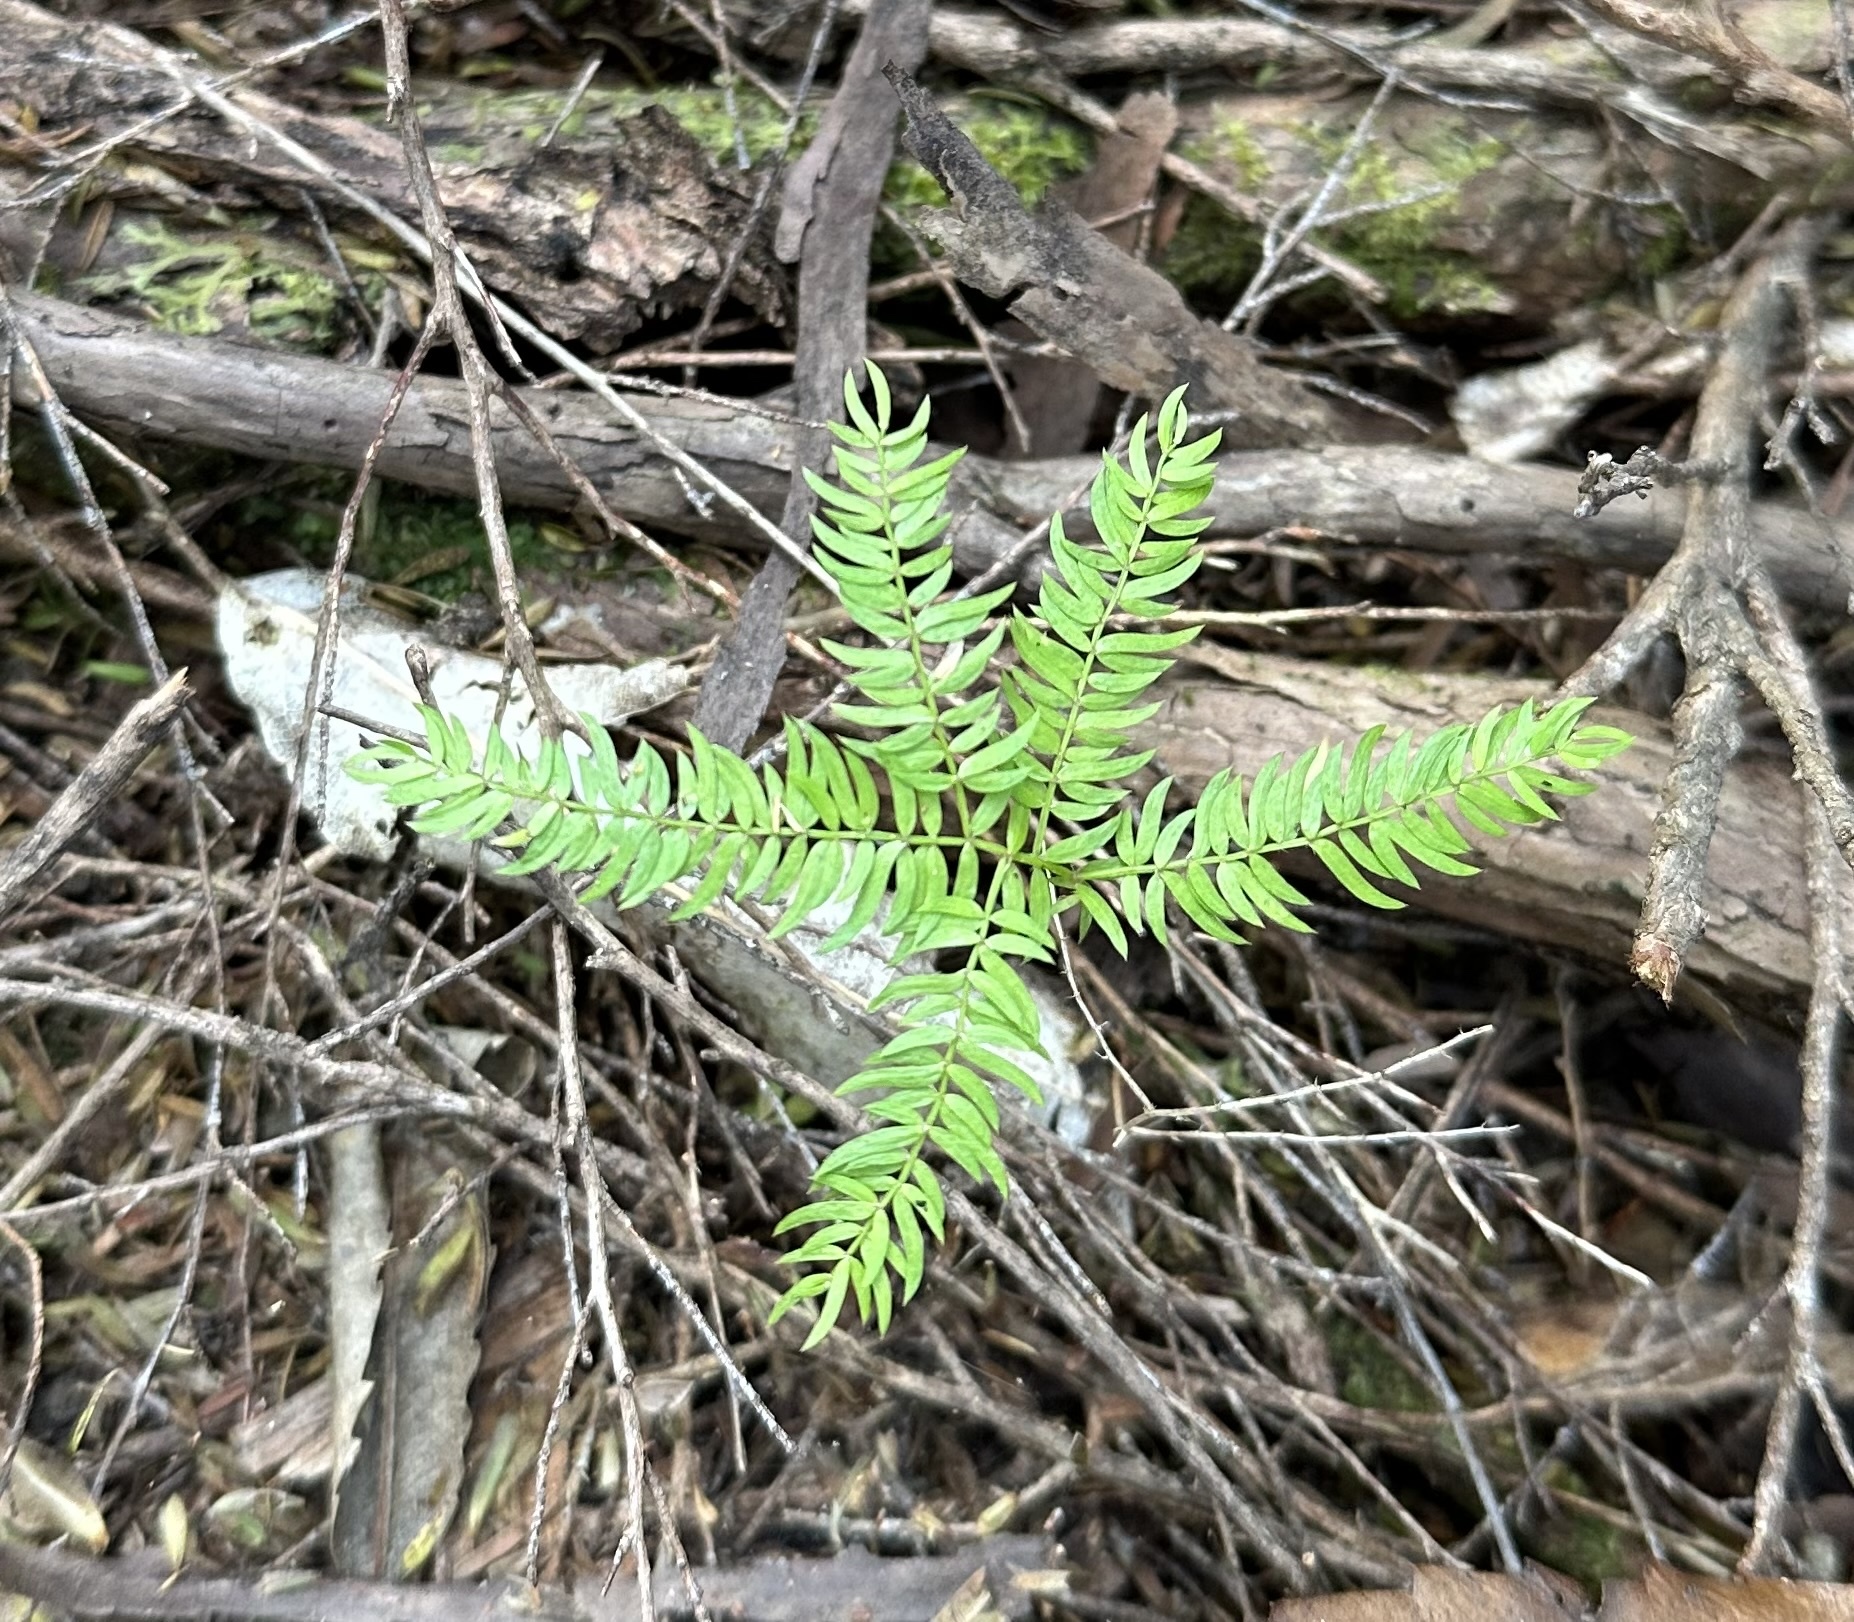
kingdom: Plantae
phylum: Tracheophyta
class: Liliopsida
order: Asparagales
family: Asparagaceae
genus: Asparagus
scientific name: Asparagus scandens
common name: Asparagus-fern
